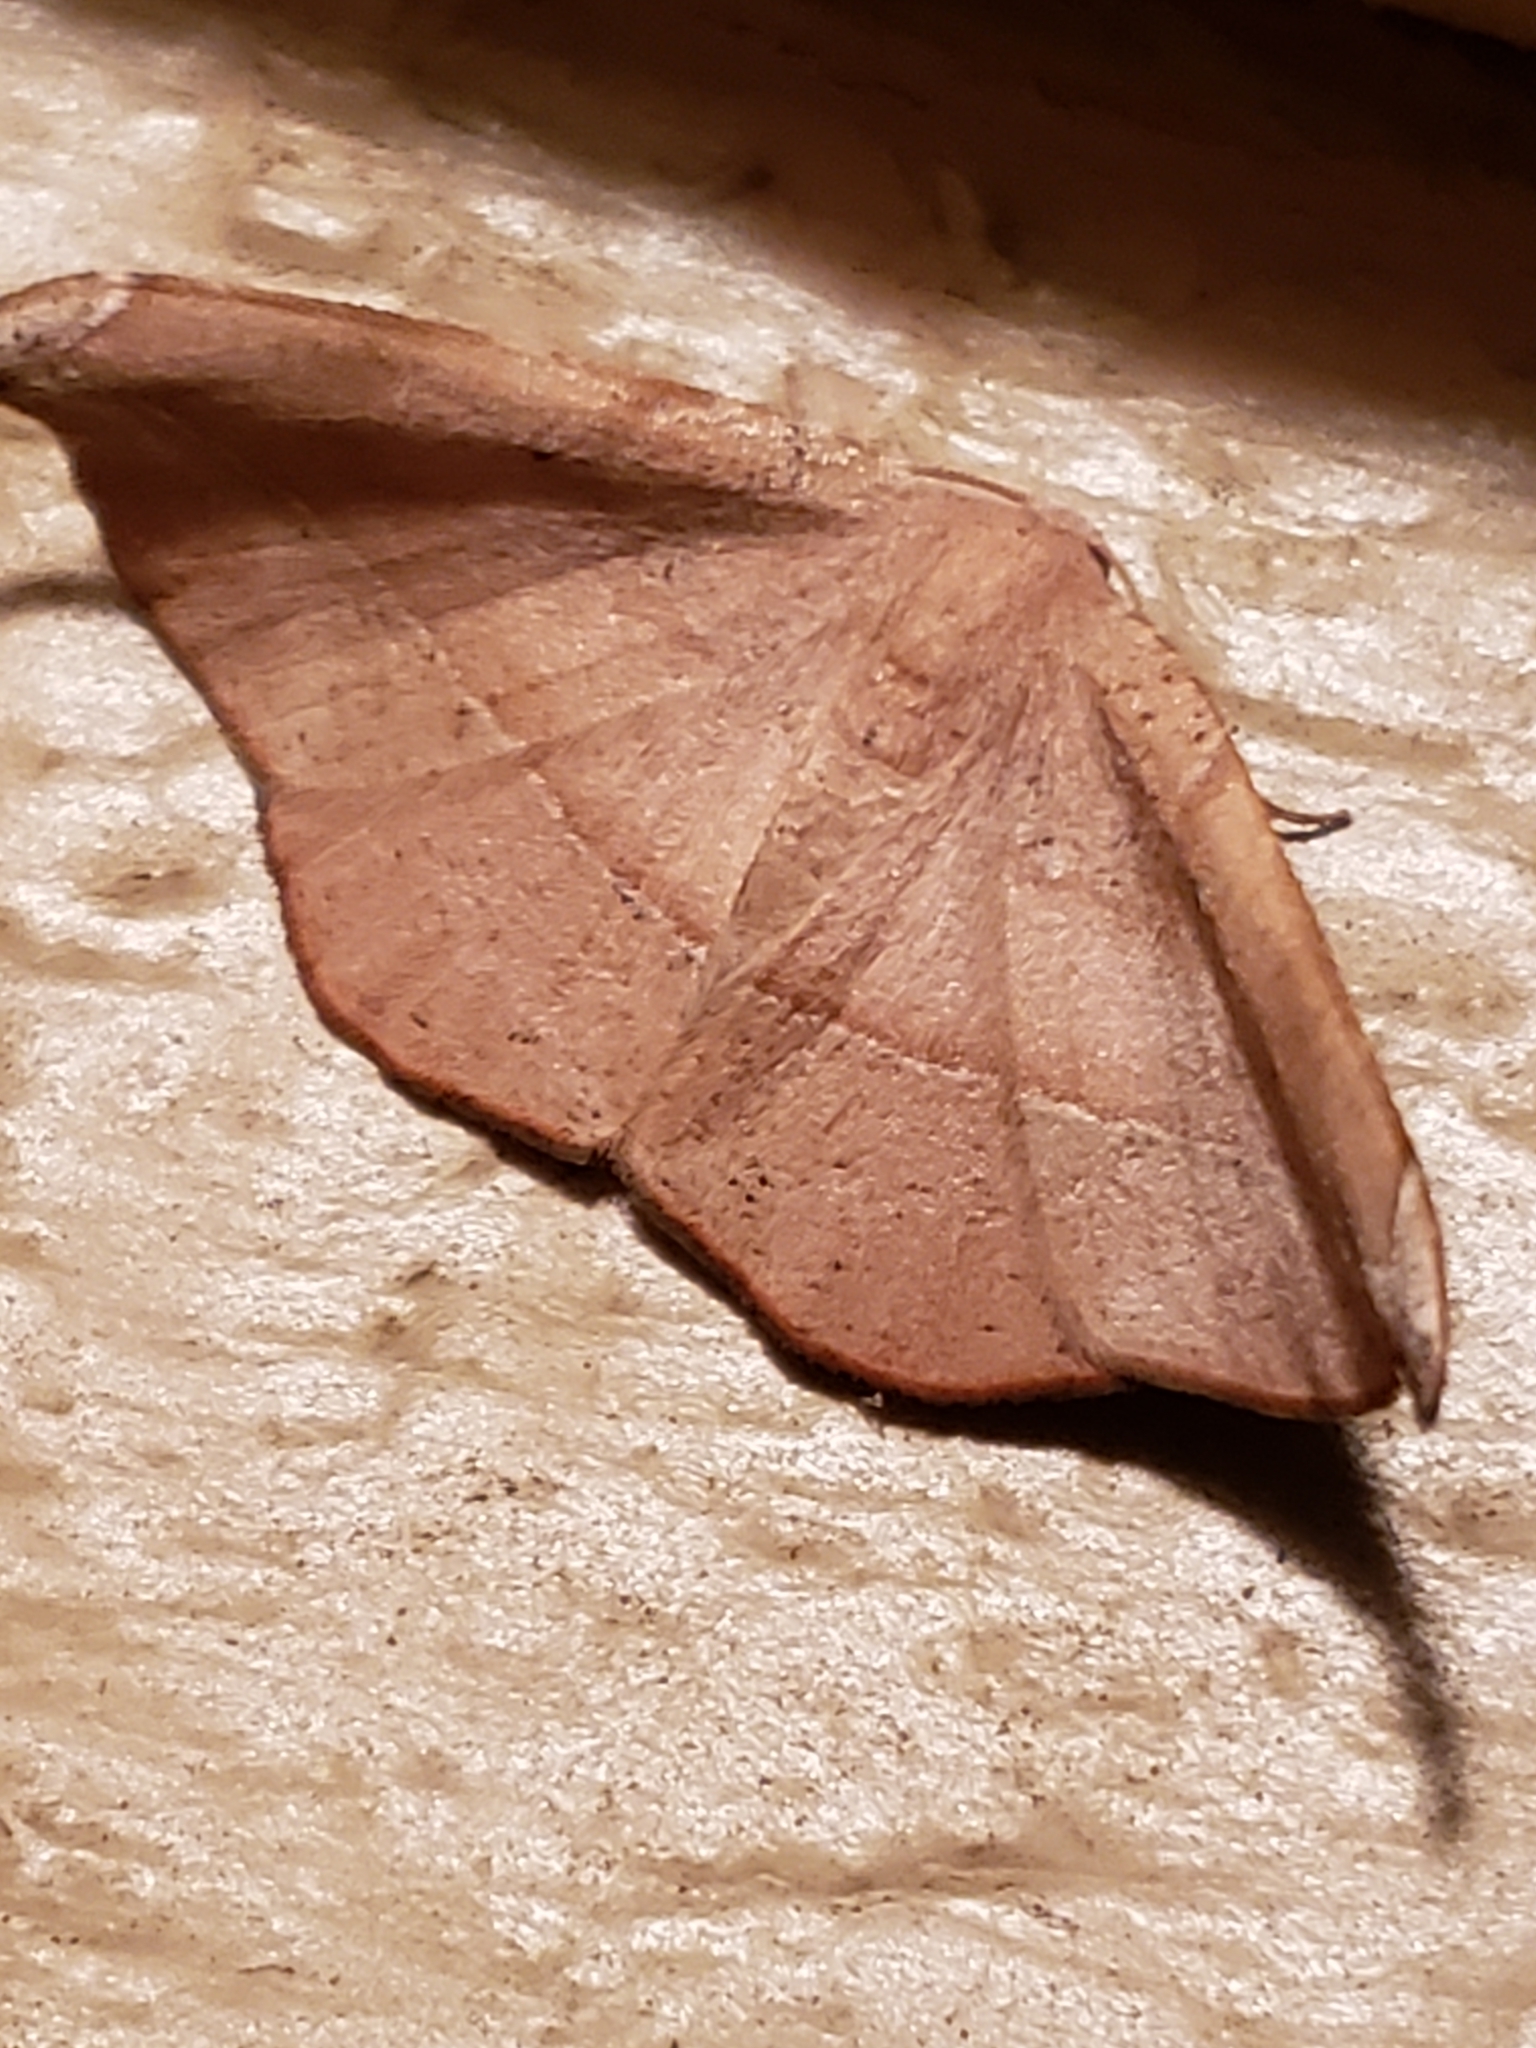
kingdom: Animalia
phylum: Arthropoda
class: Insecta
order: Lepidoptera
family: Geometridae
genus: Patalene
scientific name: Patalene olyzonaria
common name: Juniper geometer moth
